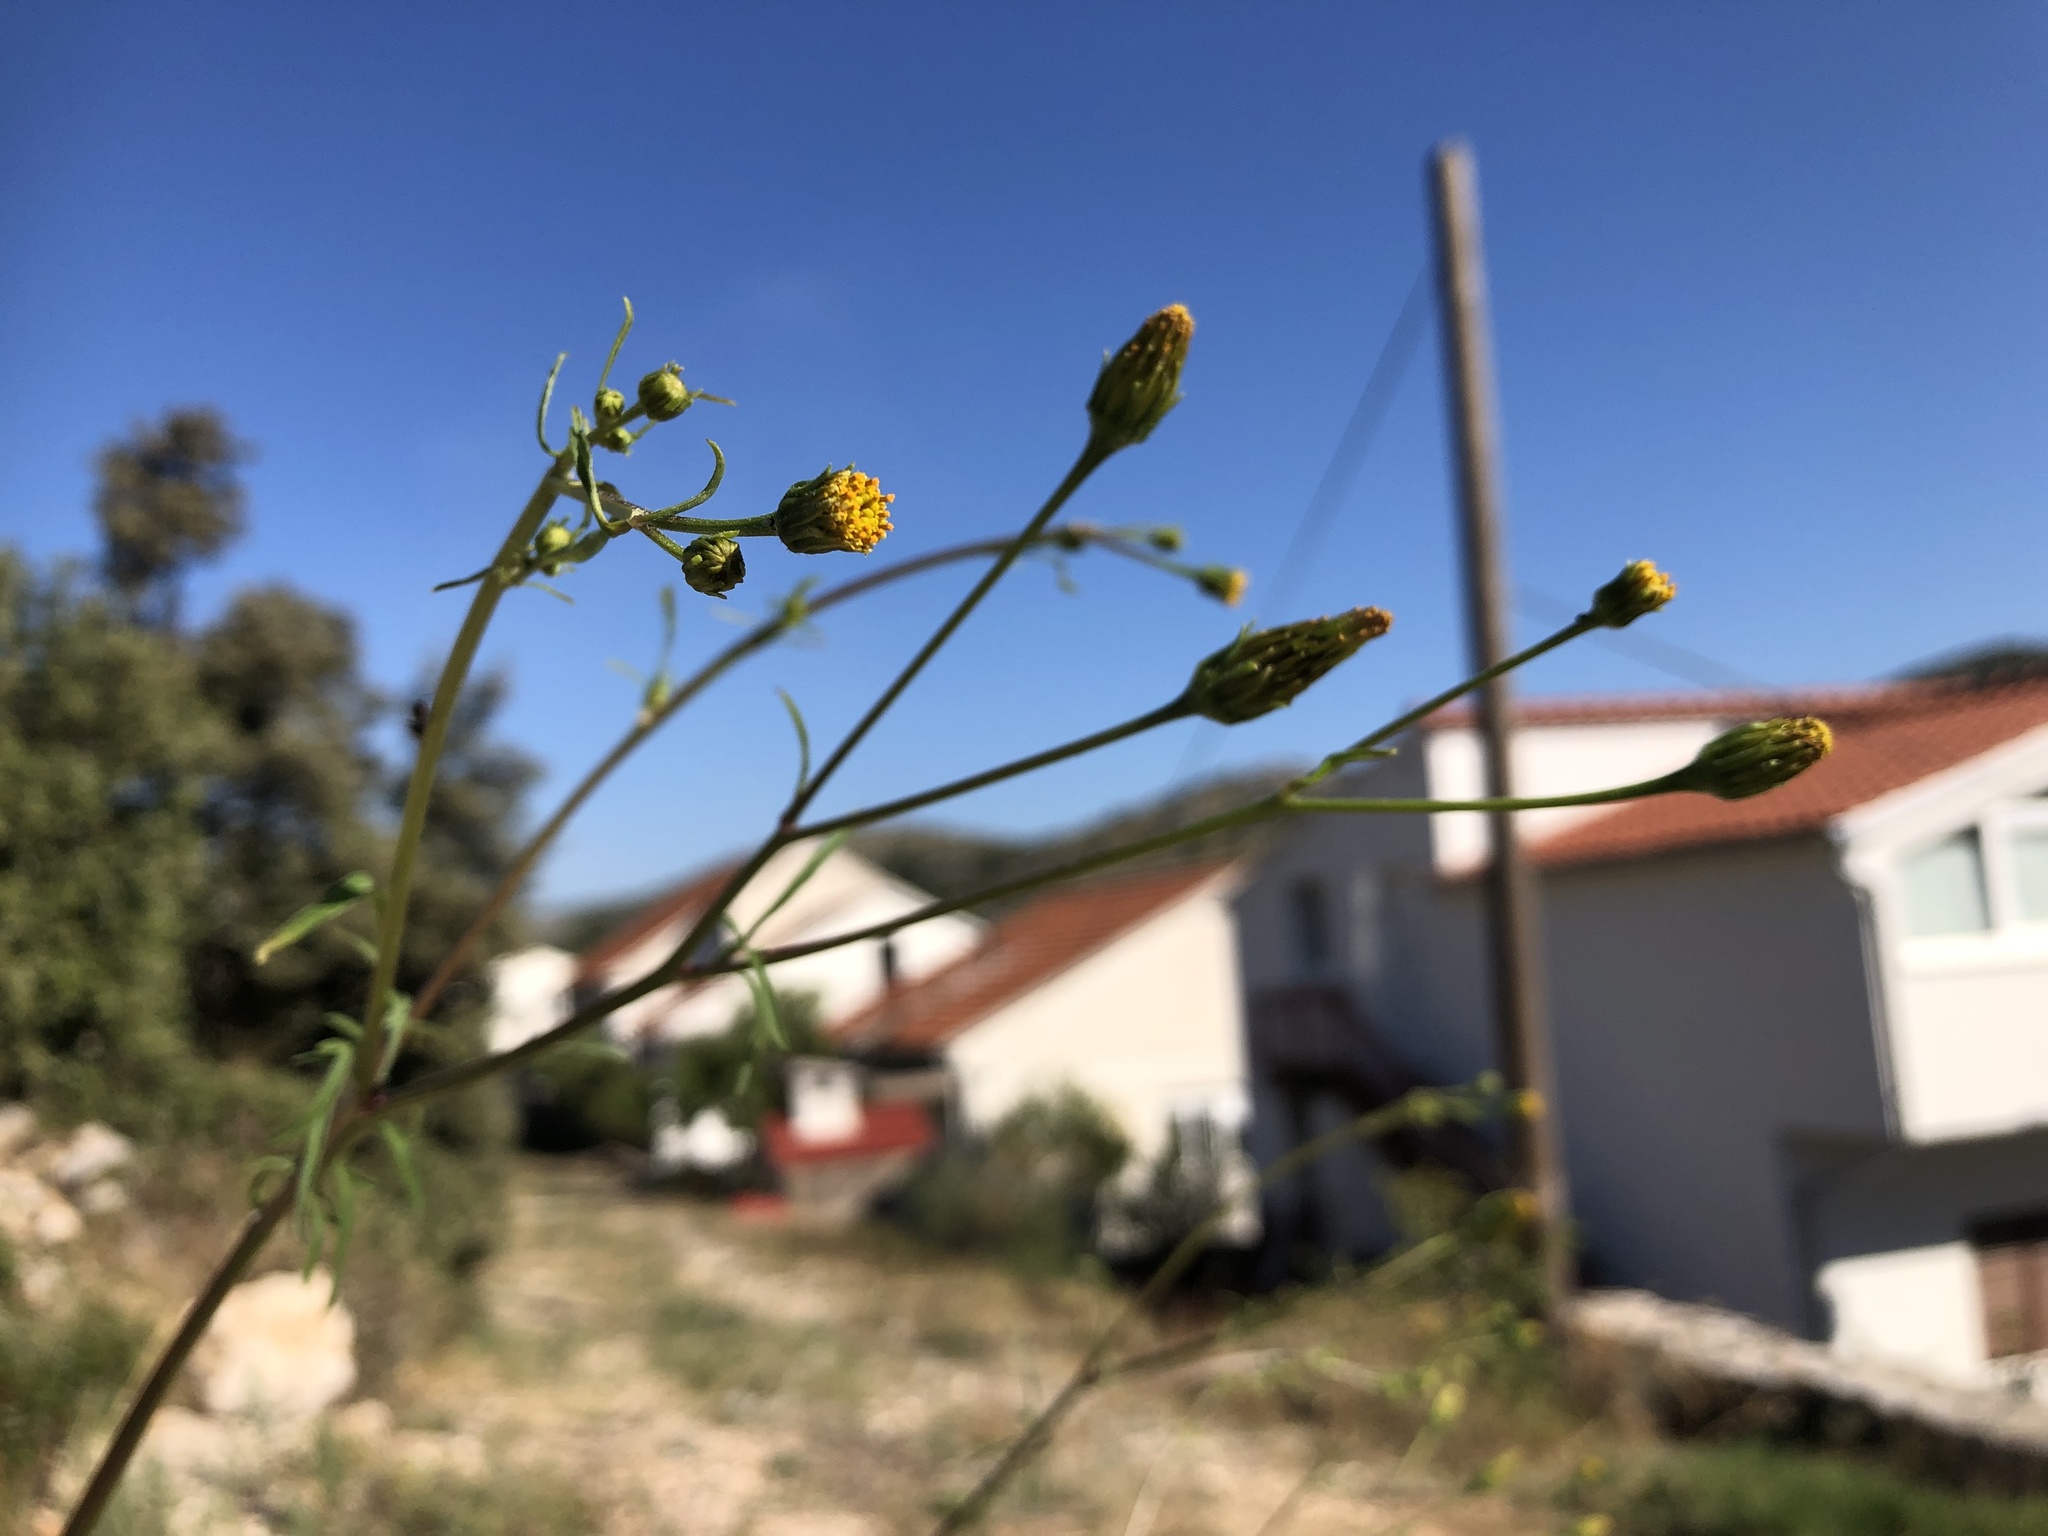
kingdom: Plantae
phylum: Tracheophyta
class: Magnoliopsida
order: Asterales
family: Asteraceae
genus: Bidens
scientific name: Bidens subalternans
